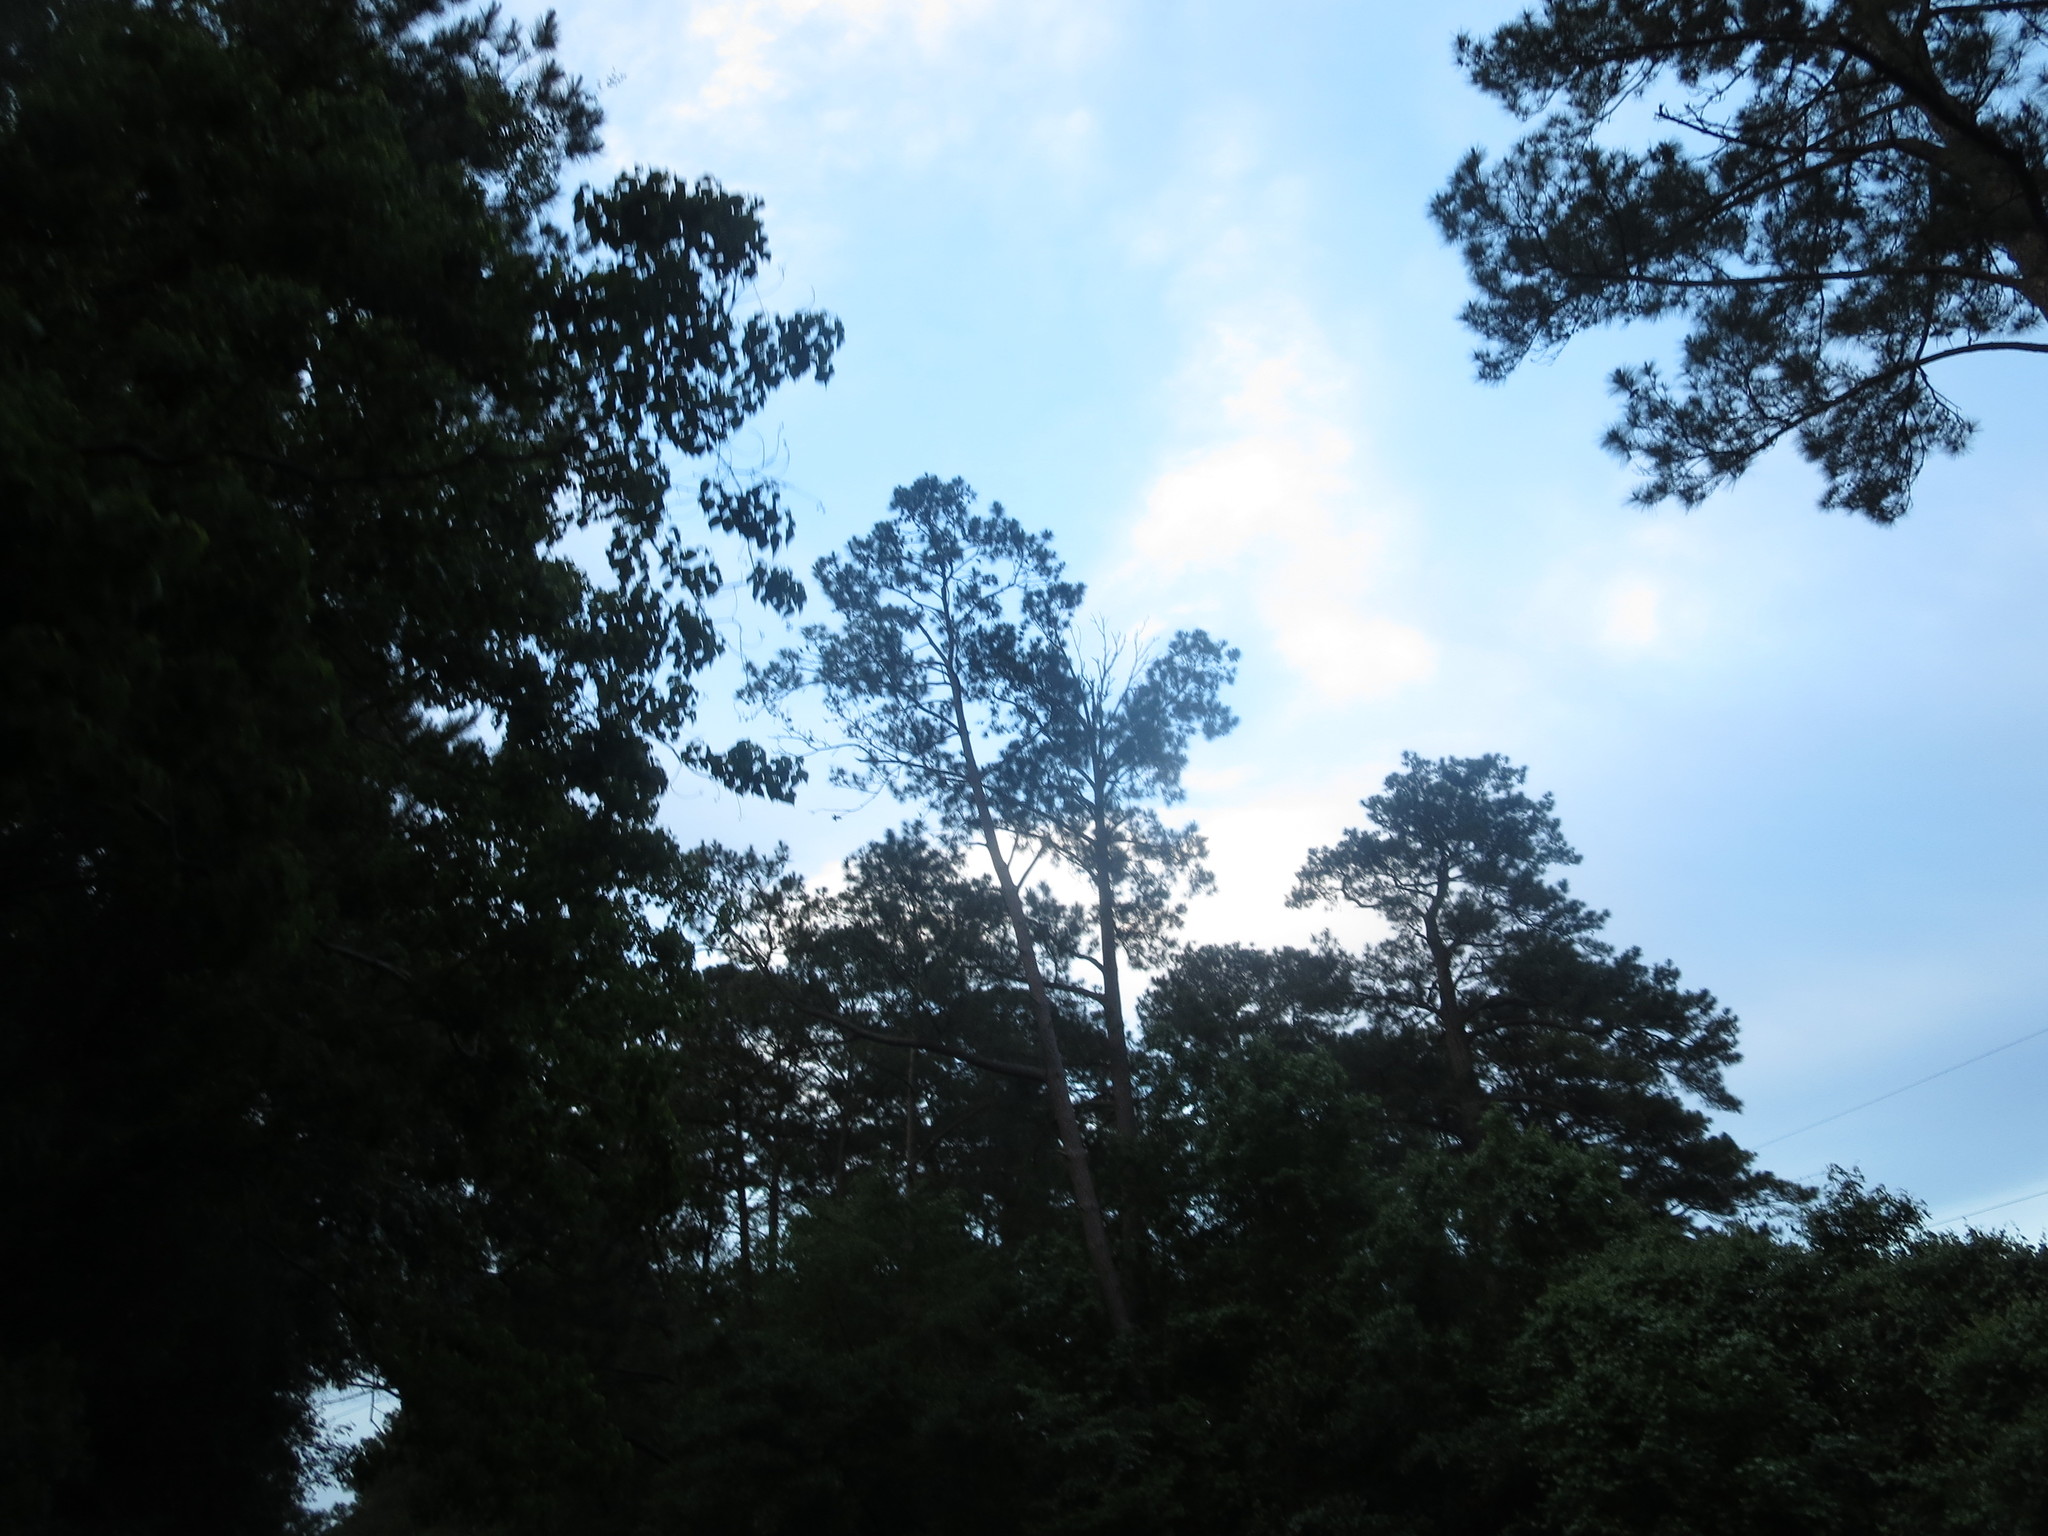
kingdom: Plantae
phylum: Tracheophyta
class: Pinopsida
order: Pinales
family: Pinaceae
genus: Pinus
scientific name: Pinus
